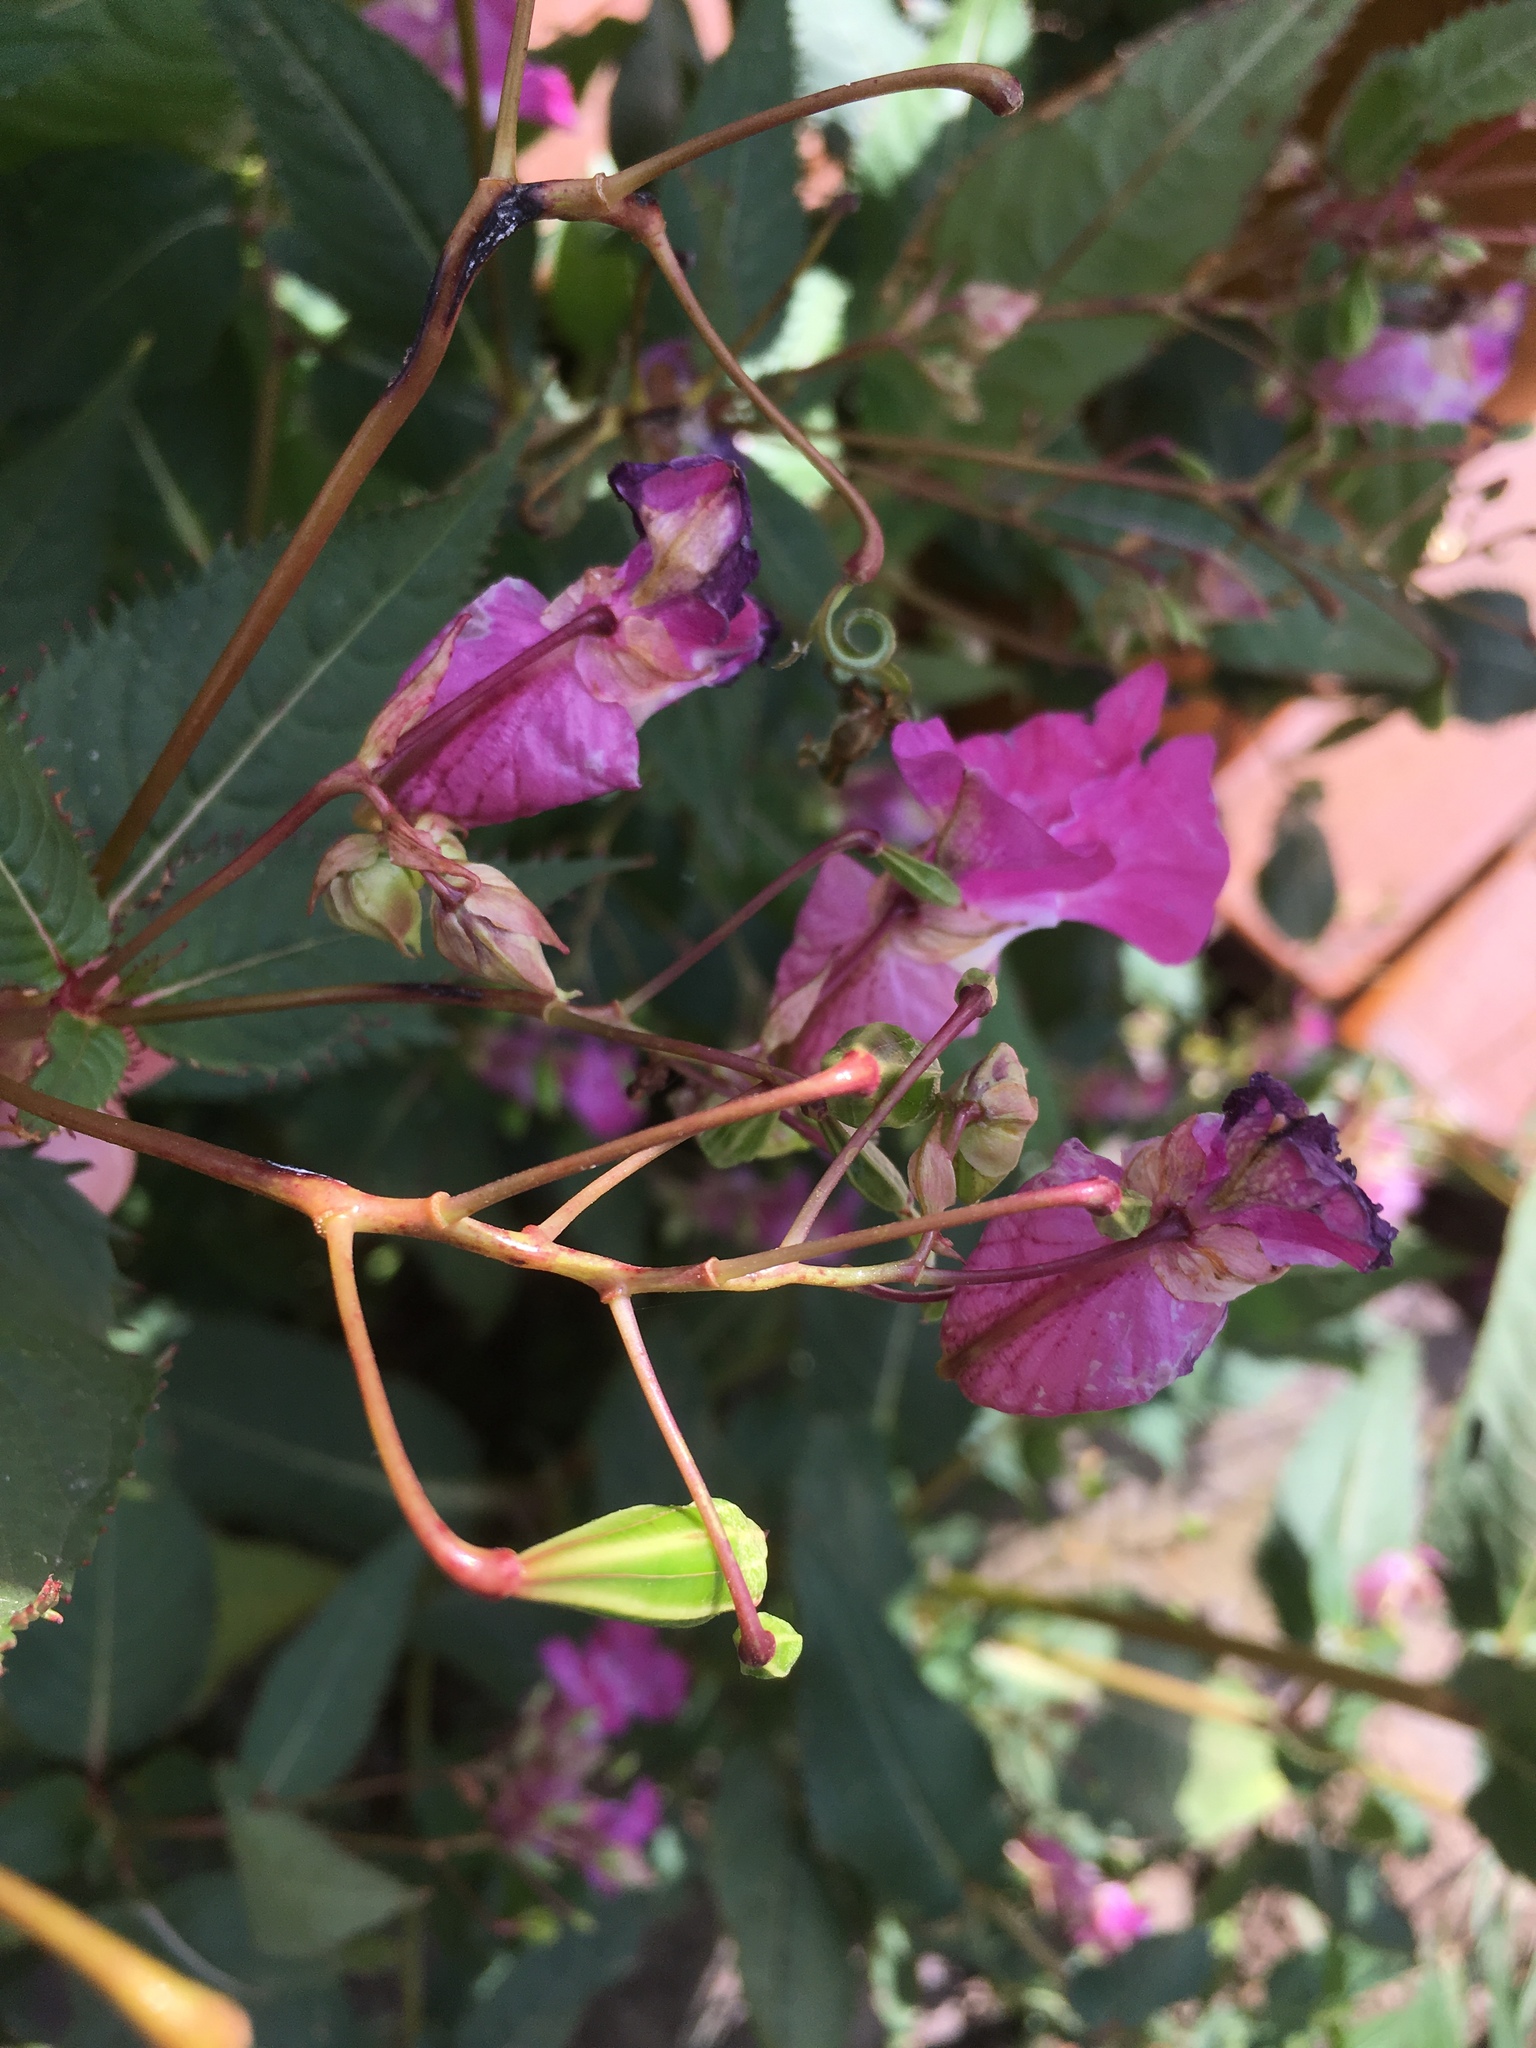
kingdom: Plantae
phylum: Tracheophyta
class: Magnoliopsida
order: Ericales
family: Balsaminaceae
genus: Impatiens
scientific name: Impatiens glandulifera
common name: Himalayan balsam
